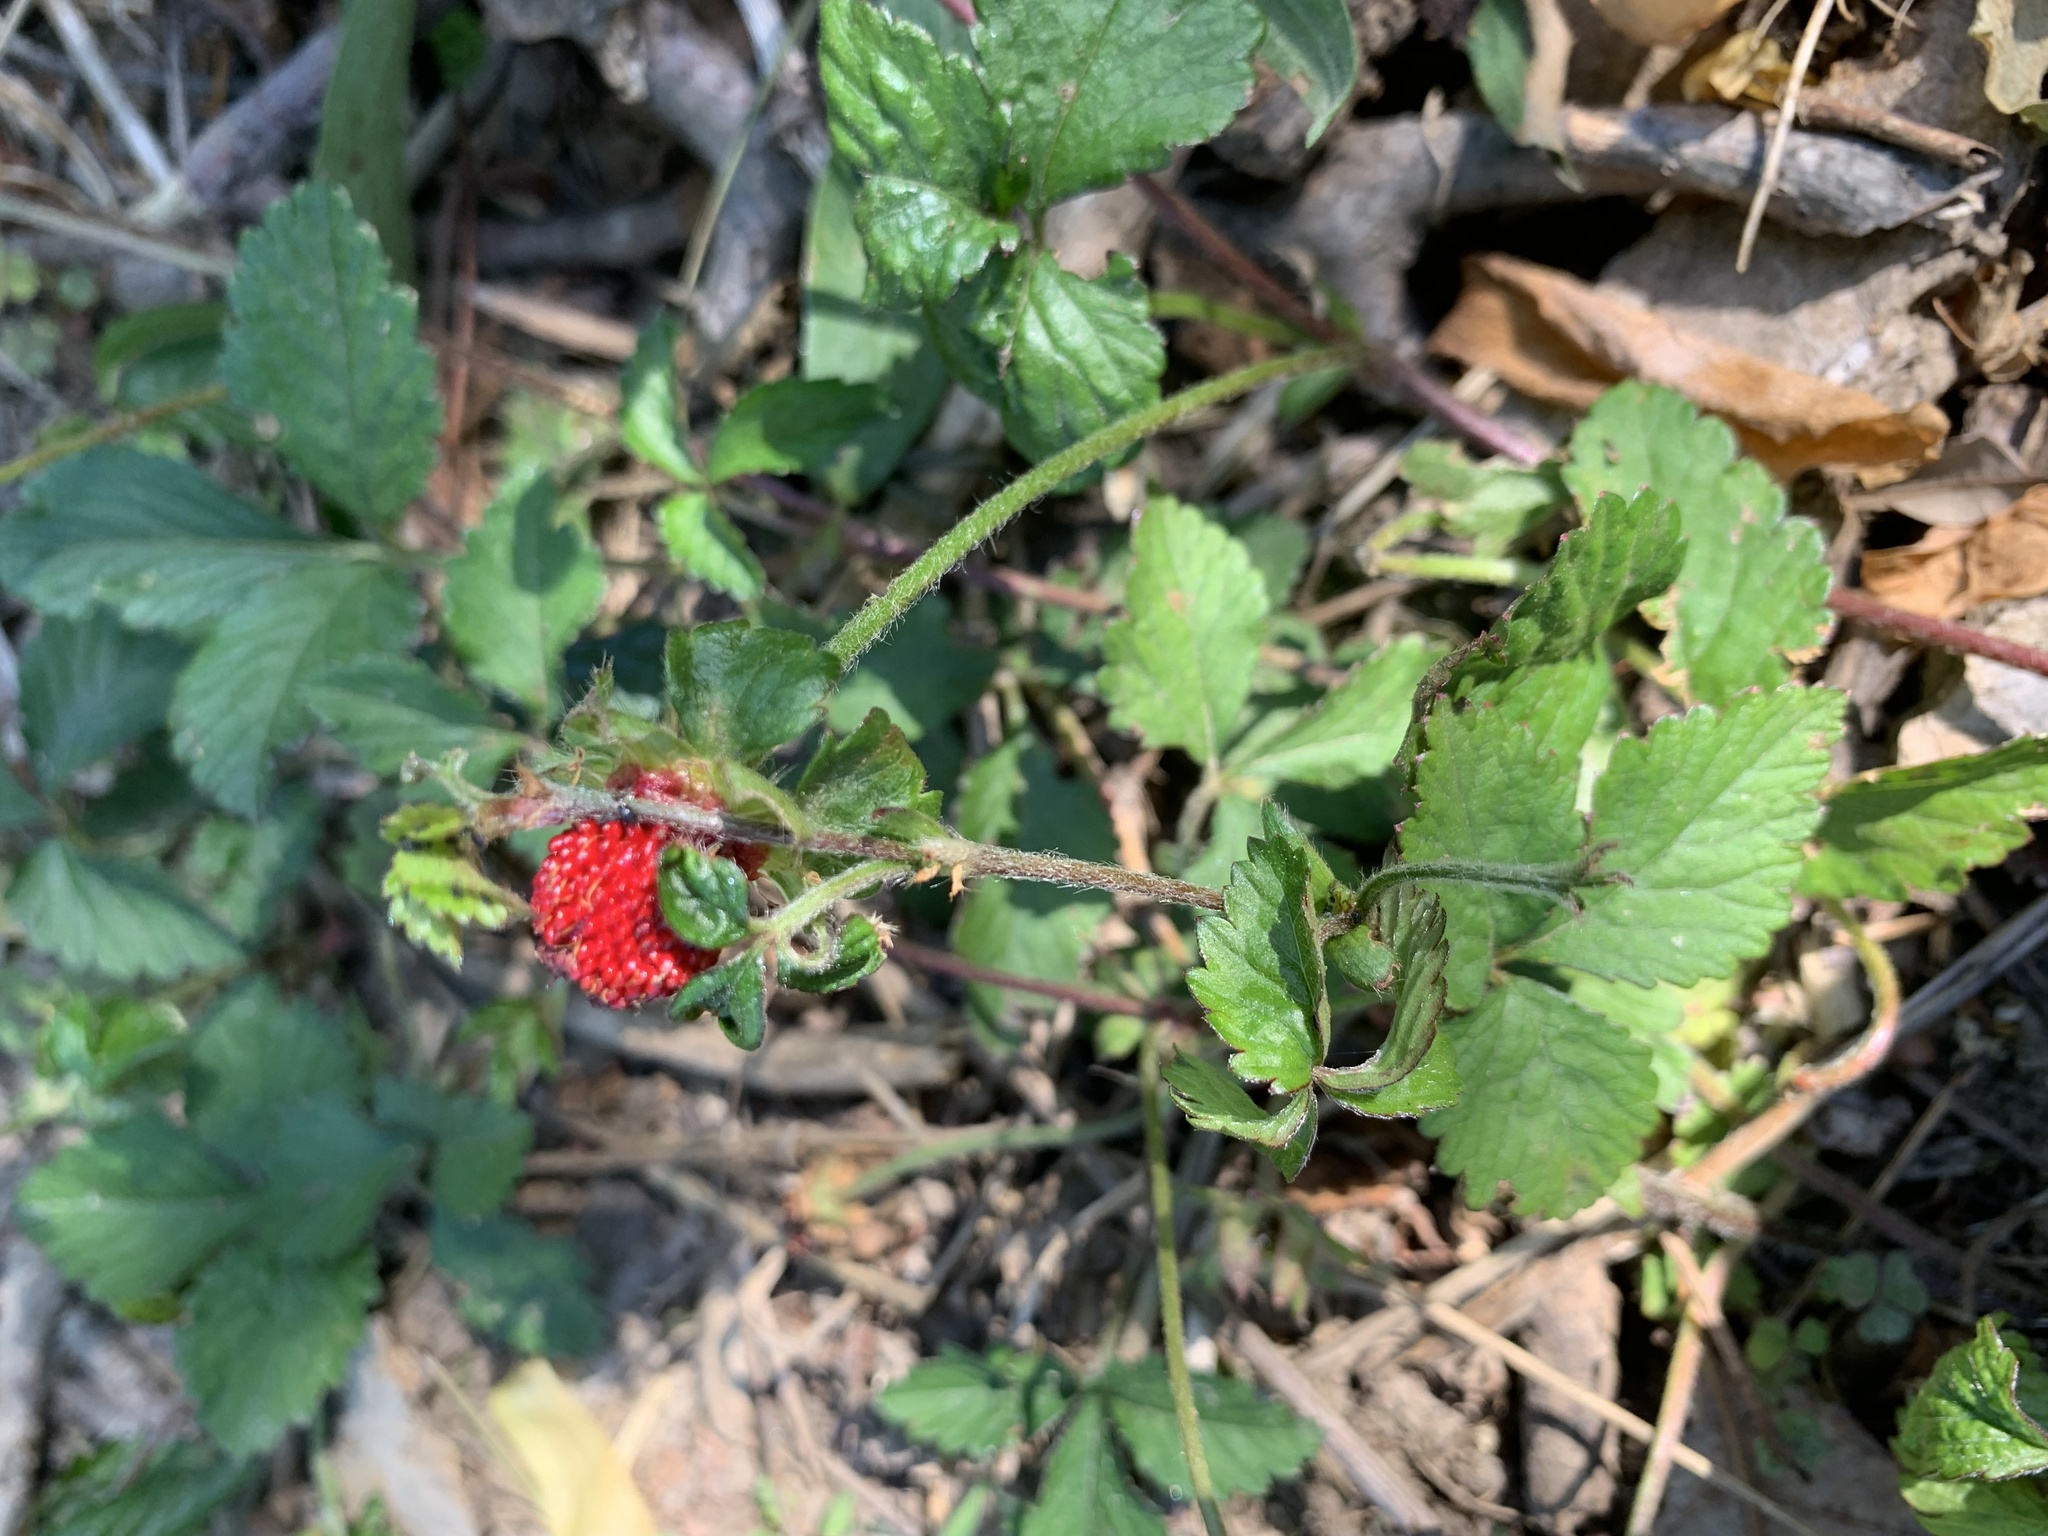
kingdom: Plantae
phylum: Tracheophyta
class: Magnoliopsida
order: Rosales
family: Rosaceae
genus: Potentilla
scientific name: Potentilla indica
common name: Yellow-flowered strawberry
